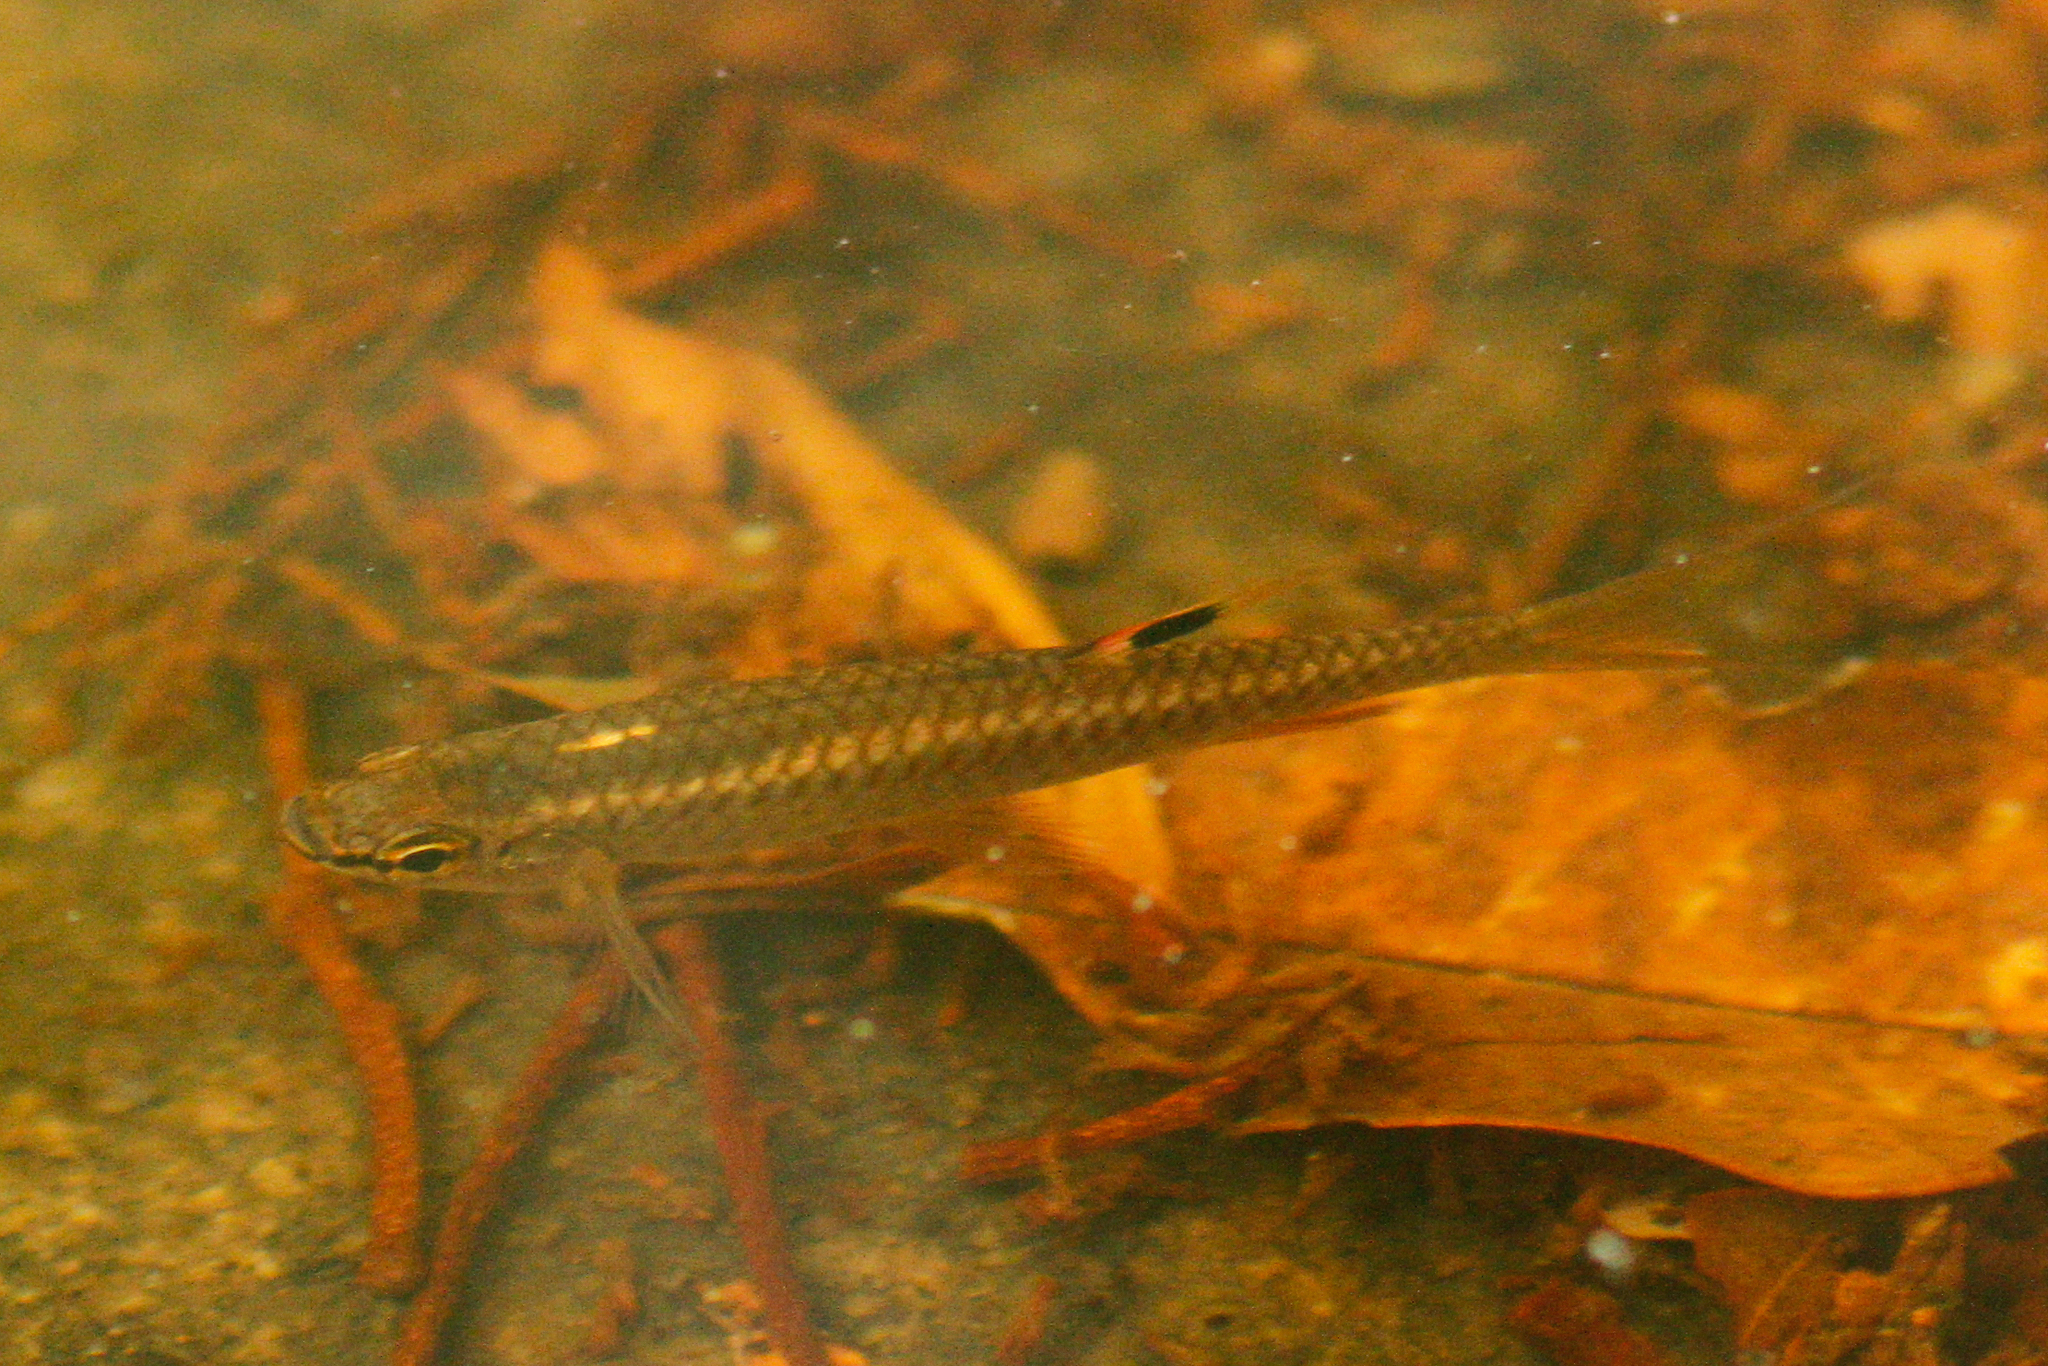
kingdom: Animalia
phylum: Chordata
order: Characiformes
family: Lebiasinidae
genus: Pyrrhulina
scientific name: Pyrrhulina filamentosa
